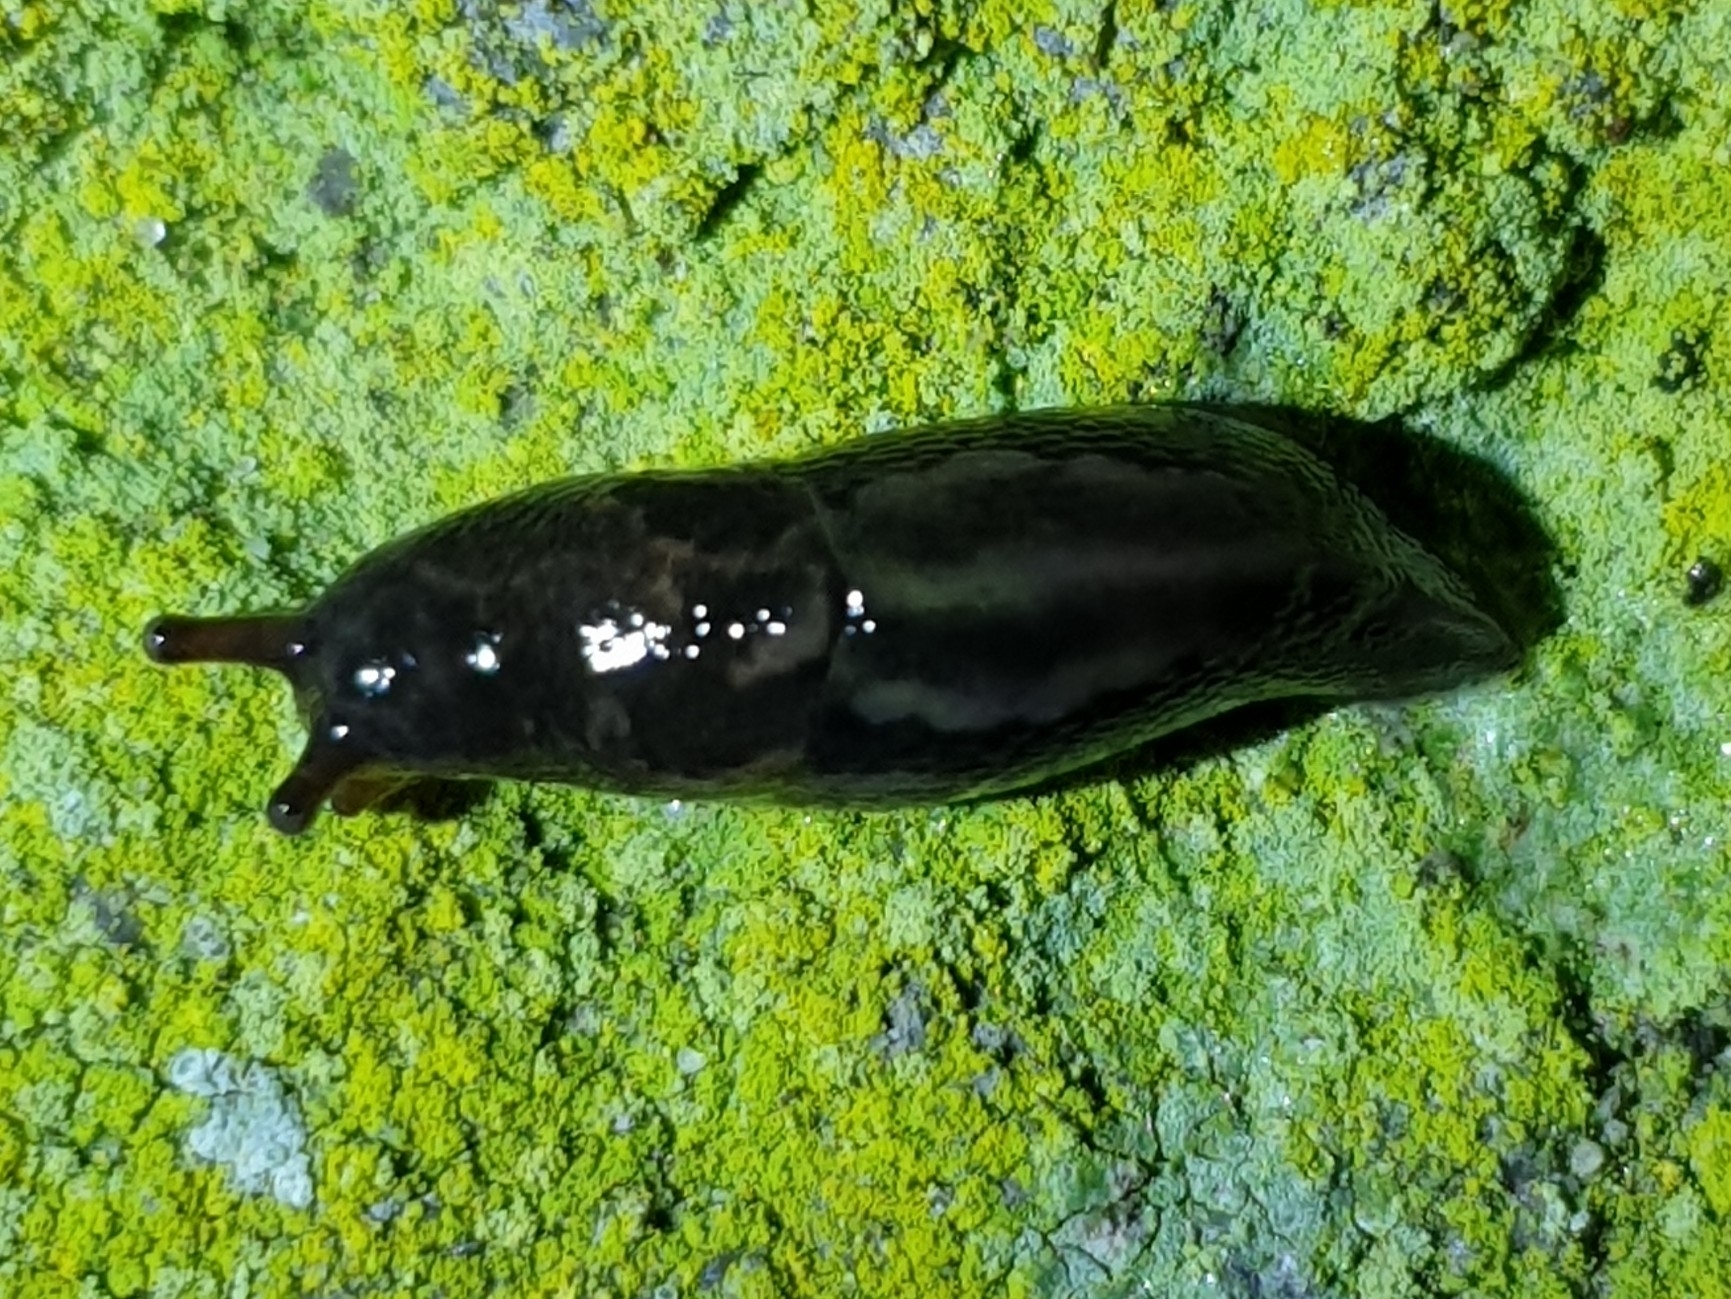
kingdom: Animalia
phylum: Mollusca
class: Gastropoda
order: Stylommatophora
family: Limacidae
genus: Limax
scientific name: Limax maximus
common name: Great grey slug
